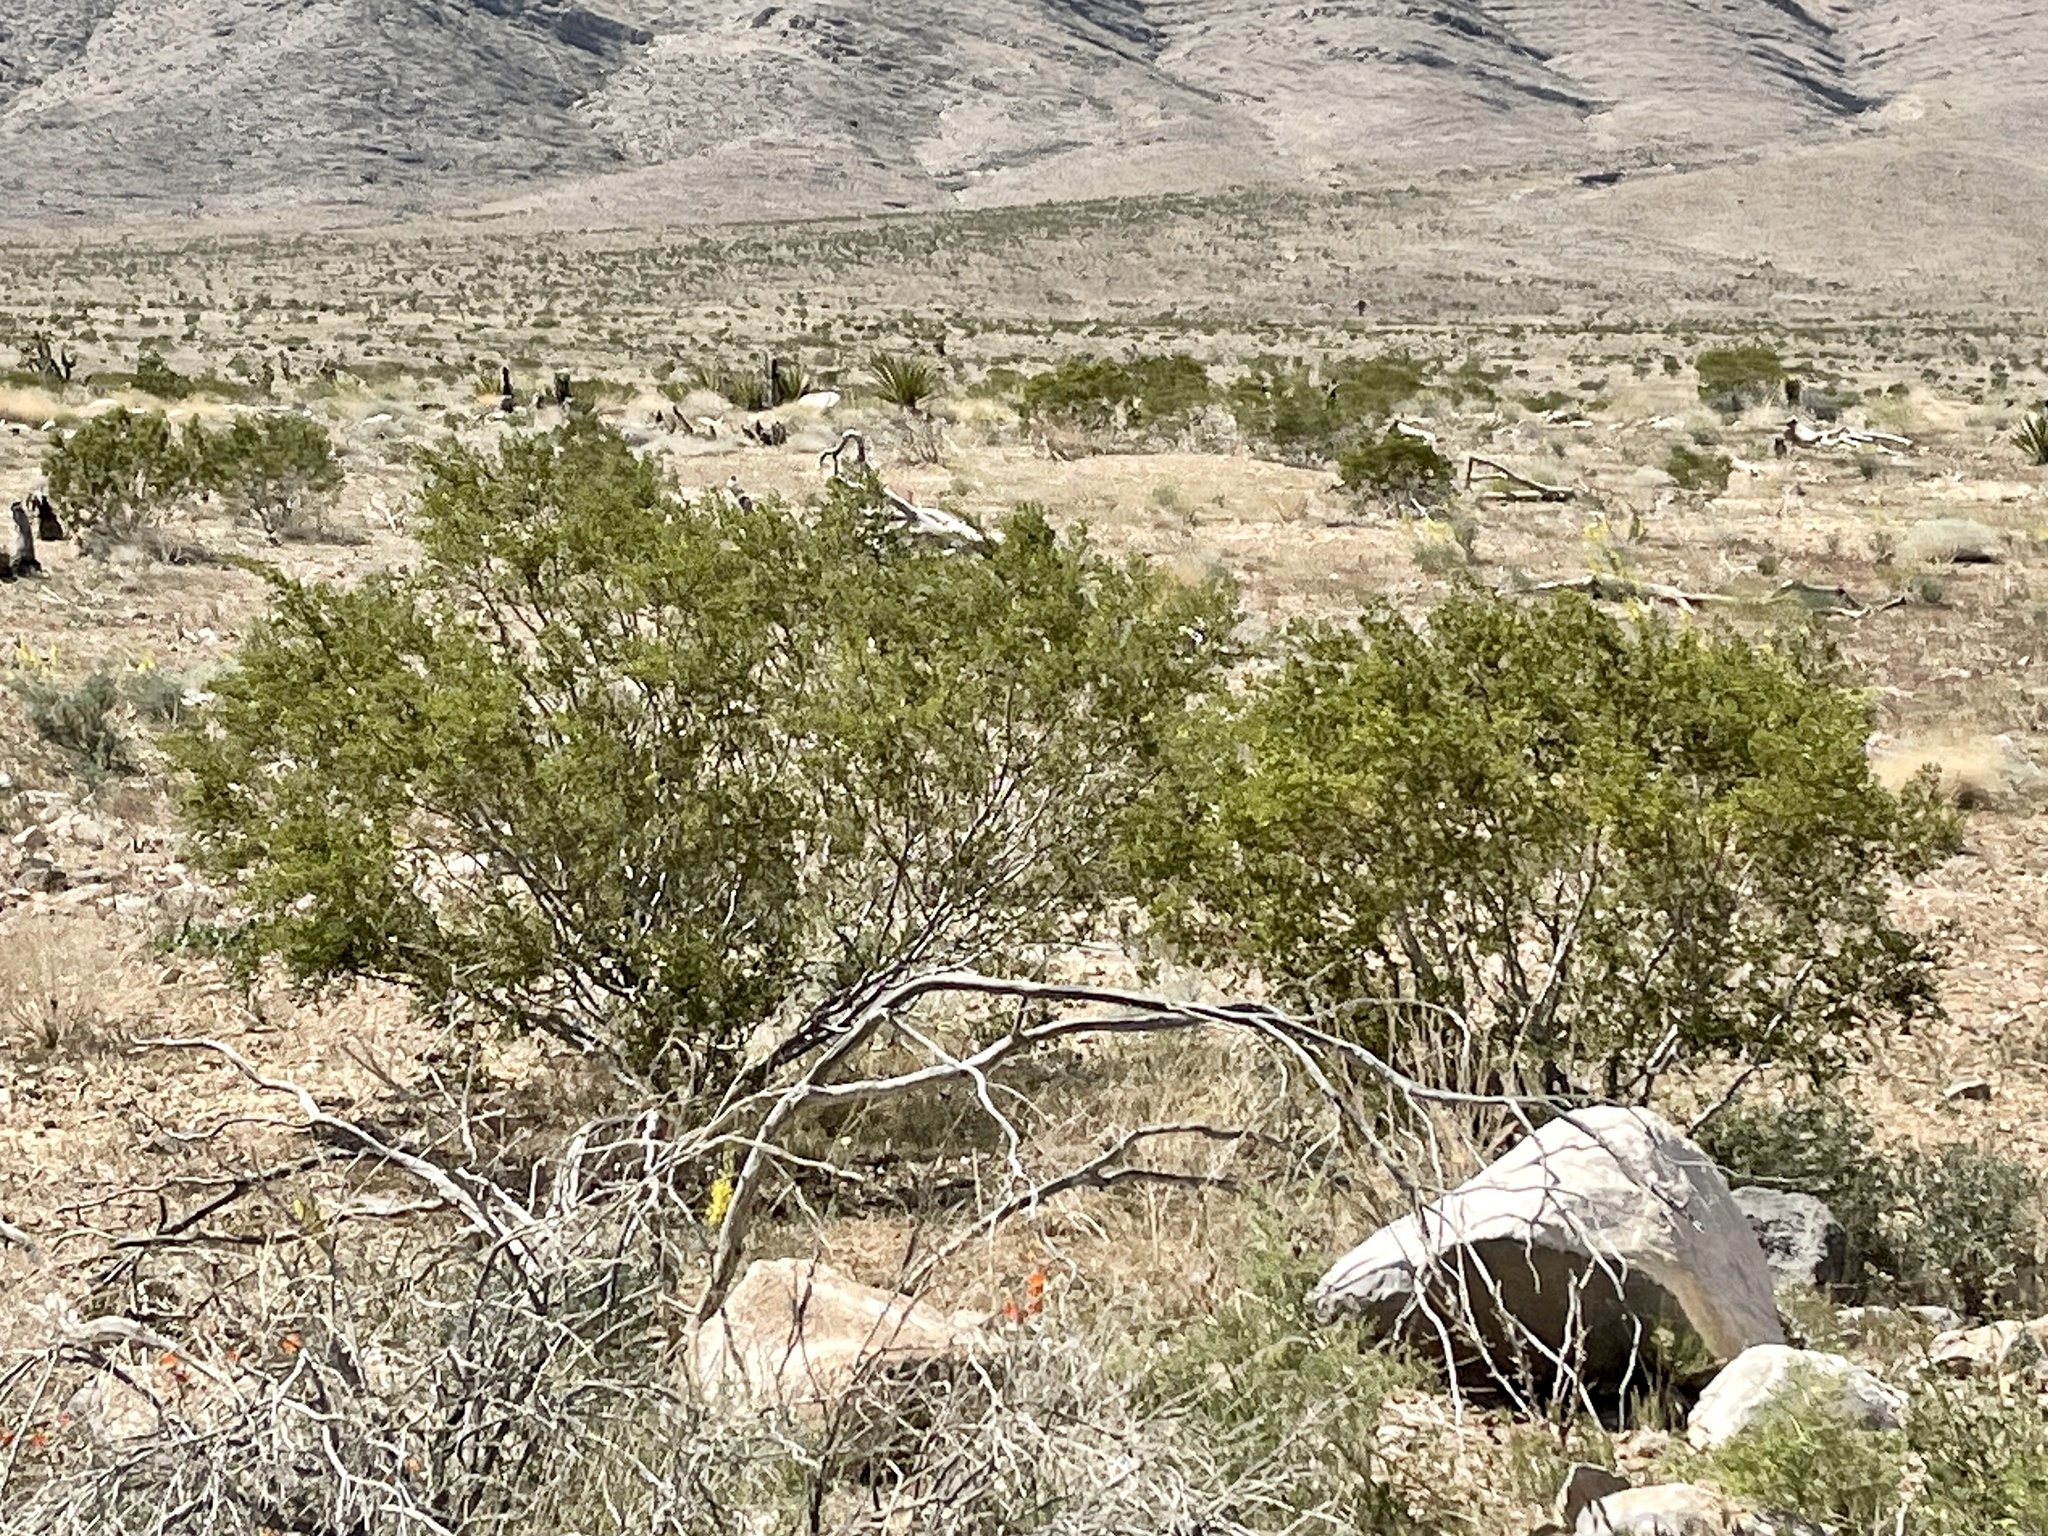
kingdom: Plantae
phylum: Tracheophyta
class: Magnoliopsida
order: Zygophyllales
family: Zygophyllaceae
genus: Larrea
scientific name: Larrea tridentata
